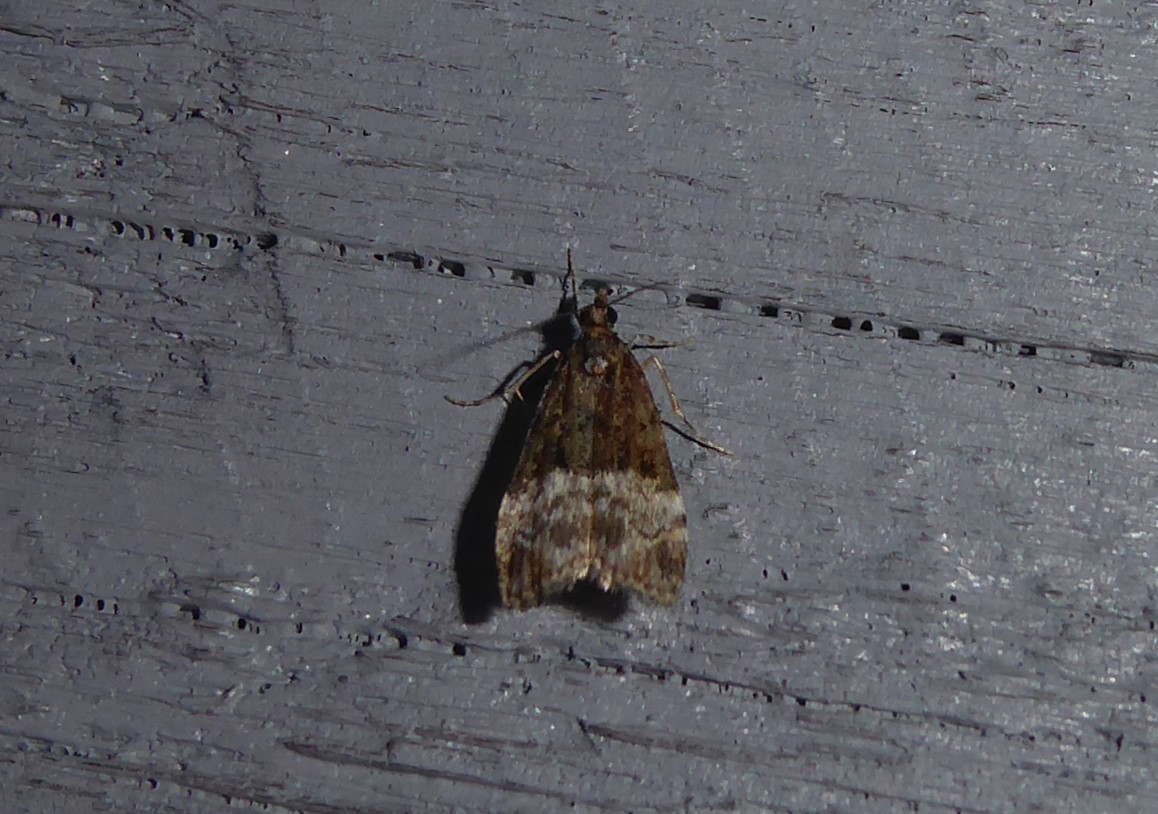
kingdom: Animalia
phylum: Arthropoda
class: Insecta
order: Lepidoptera
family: Crambidae
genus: Scoparia
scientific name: Scoparia minusculalis
